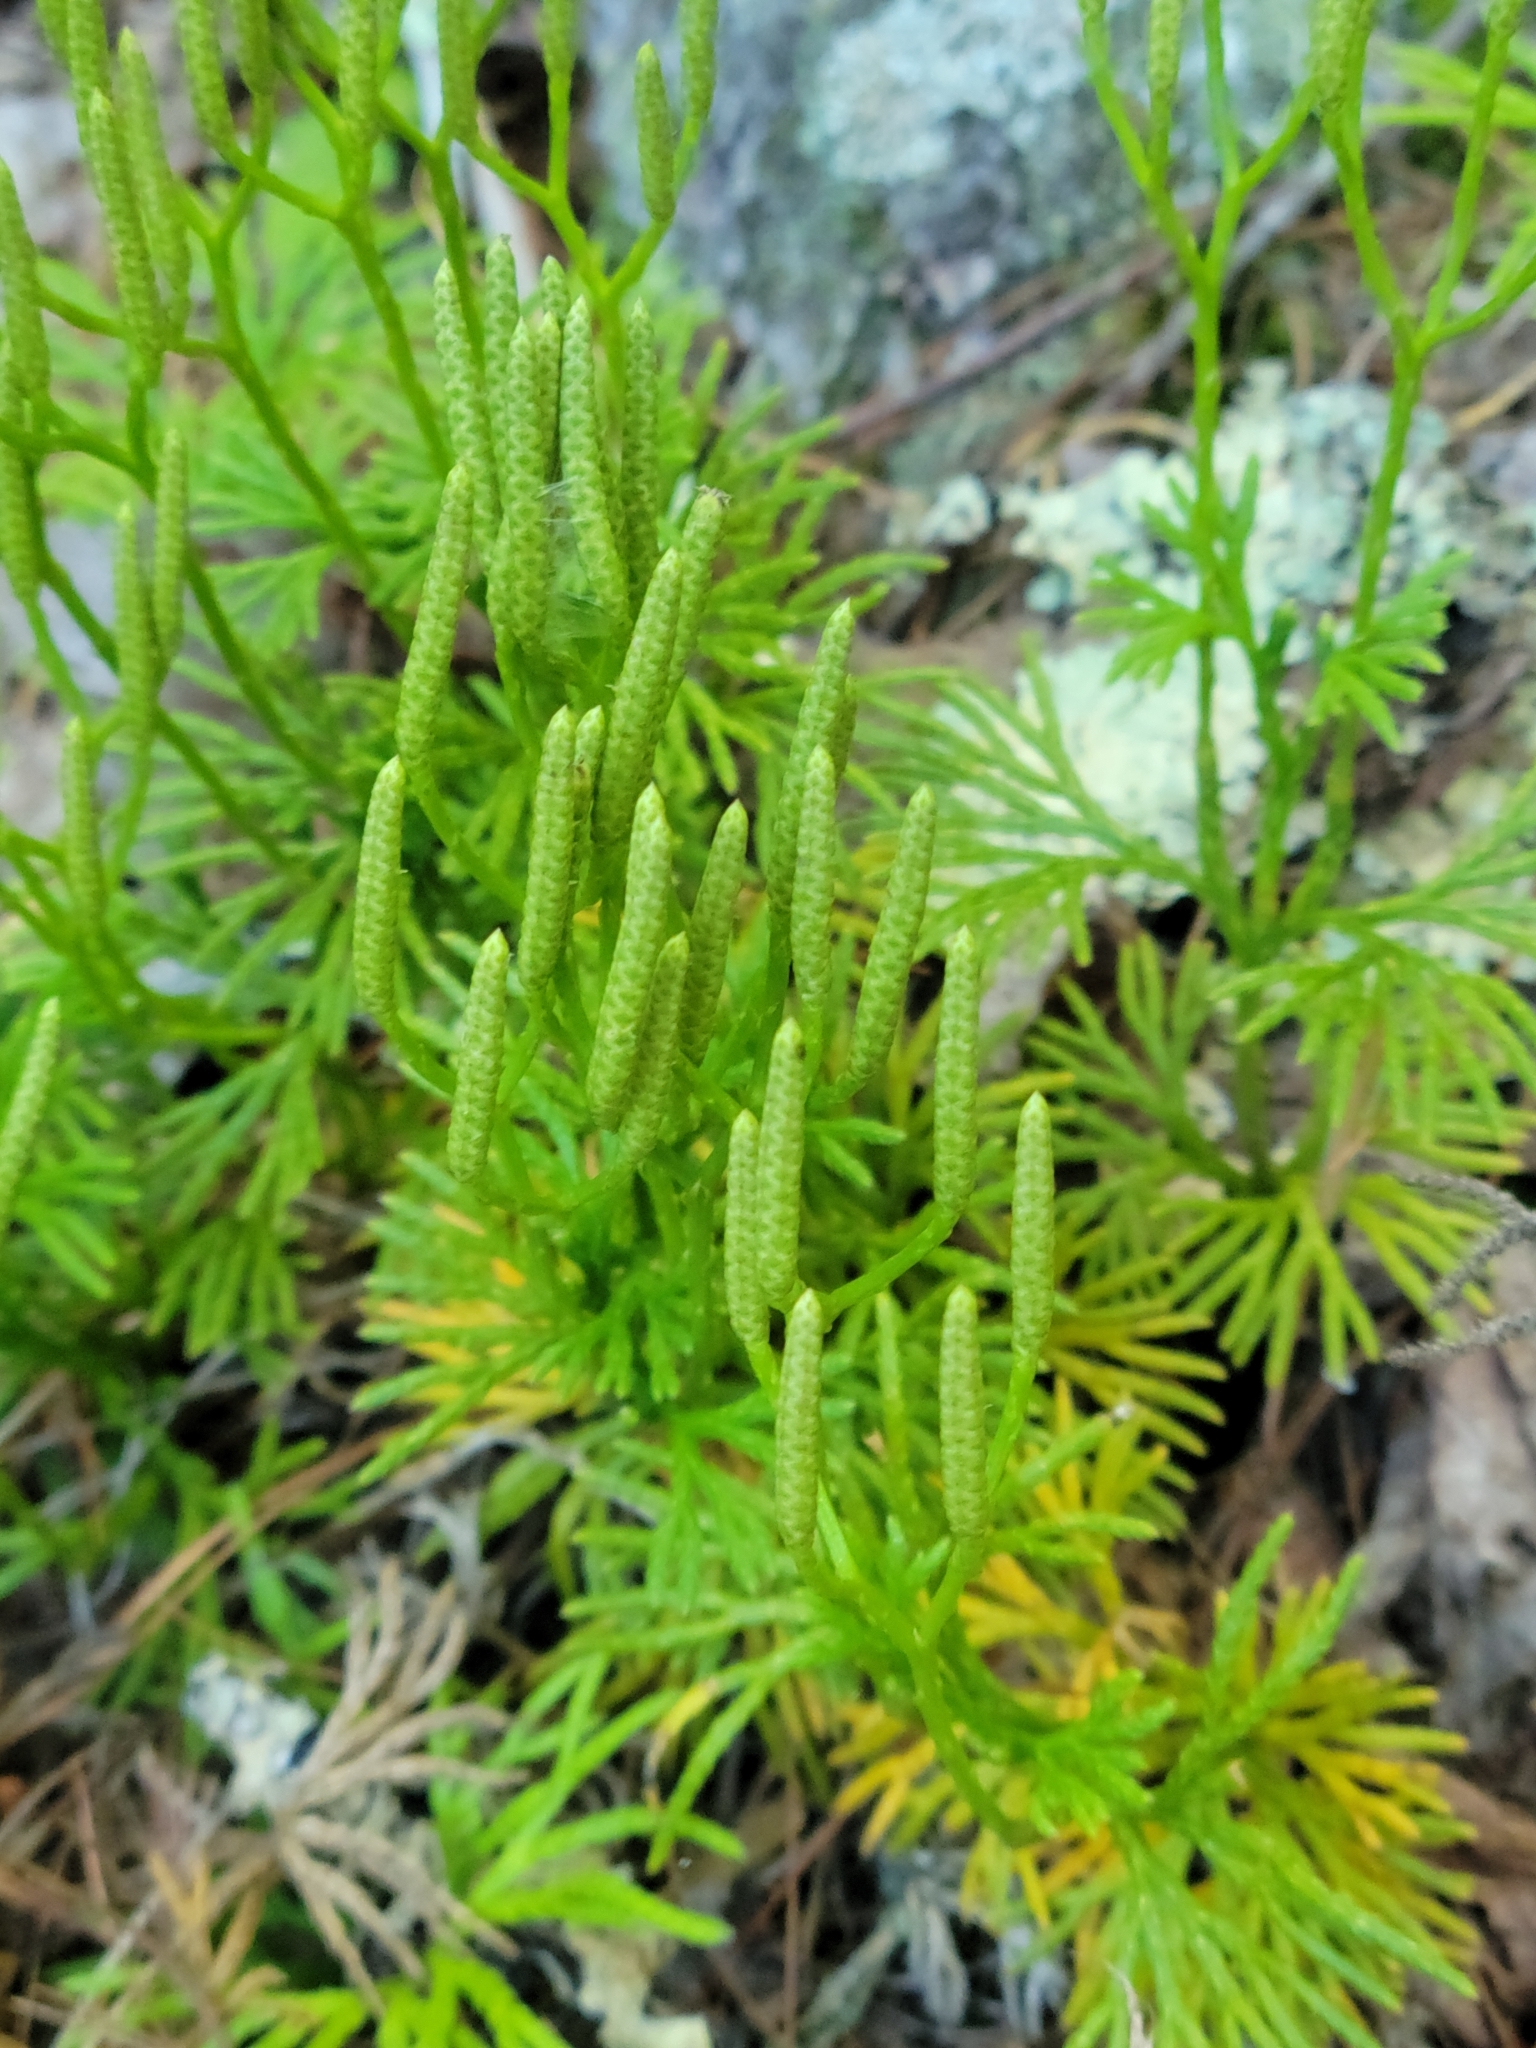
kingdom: Plantae
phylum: Tracheophyta
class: Lycopodiopsida
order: Lycopodiales
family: Lycopodiaceae
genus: Diphasiastrum
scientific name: Diphasiastrum digitatum
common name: Southern running-pine
